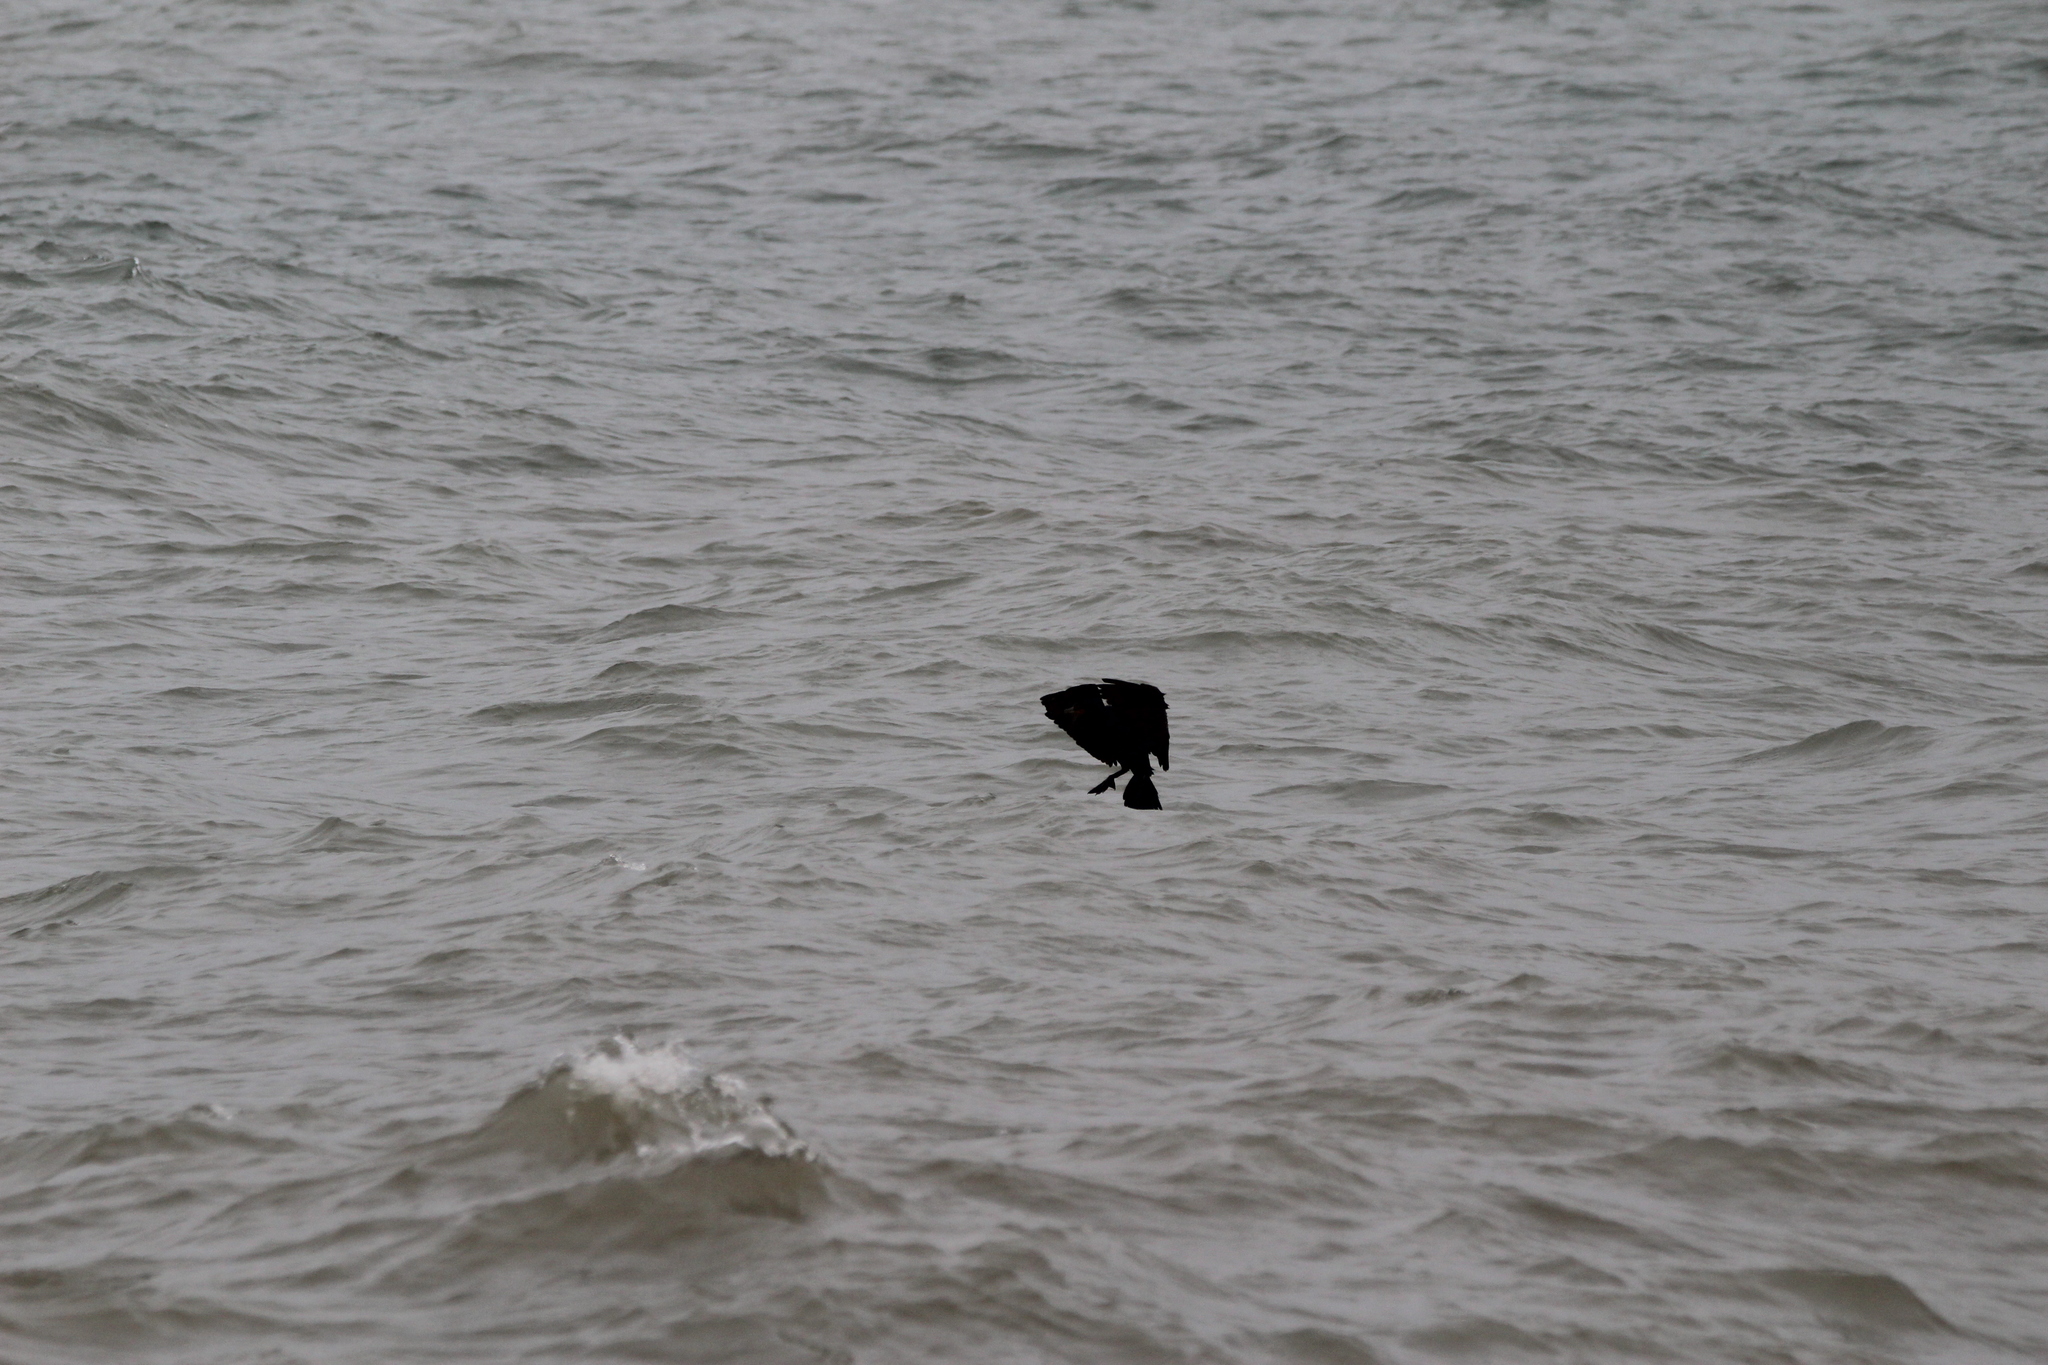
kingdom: Animalia
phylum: Chordata
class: Aves
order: Suliformes
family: Phalacrocoracidae
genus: Phalacrocorax
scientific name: Phalacrocorax auritus
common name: Double-crested cormorant
